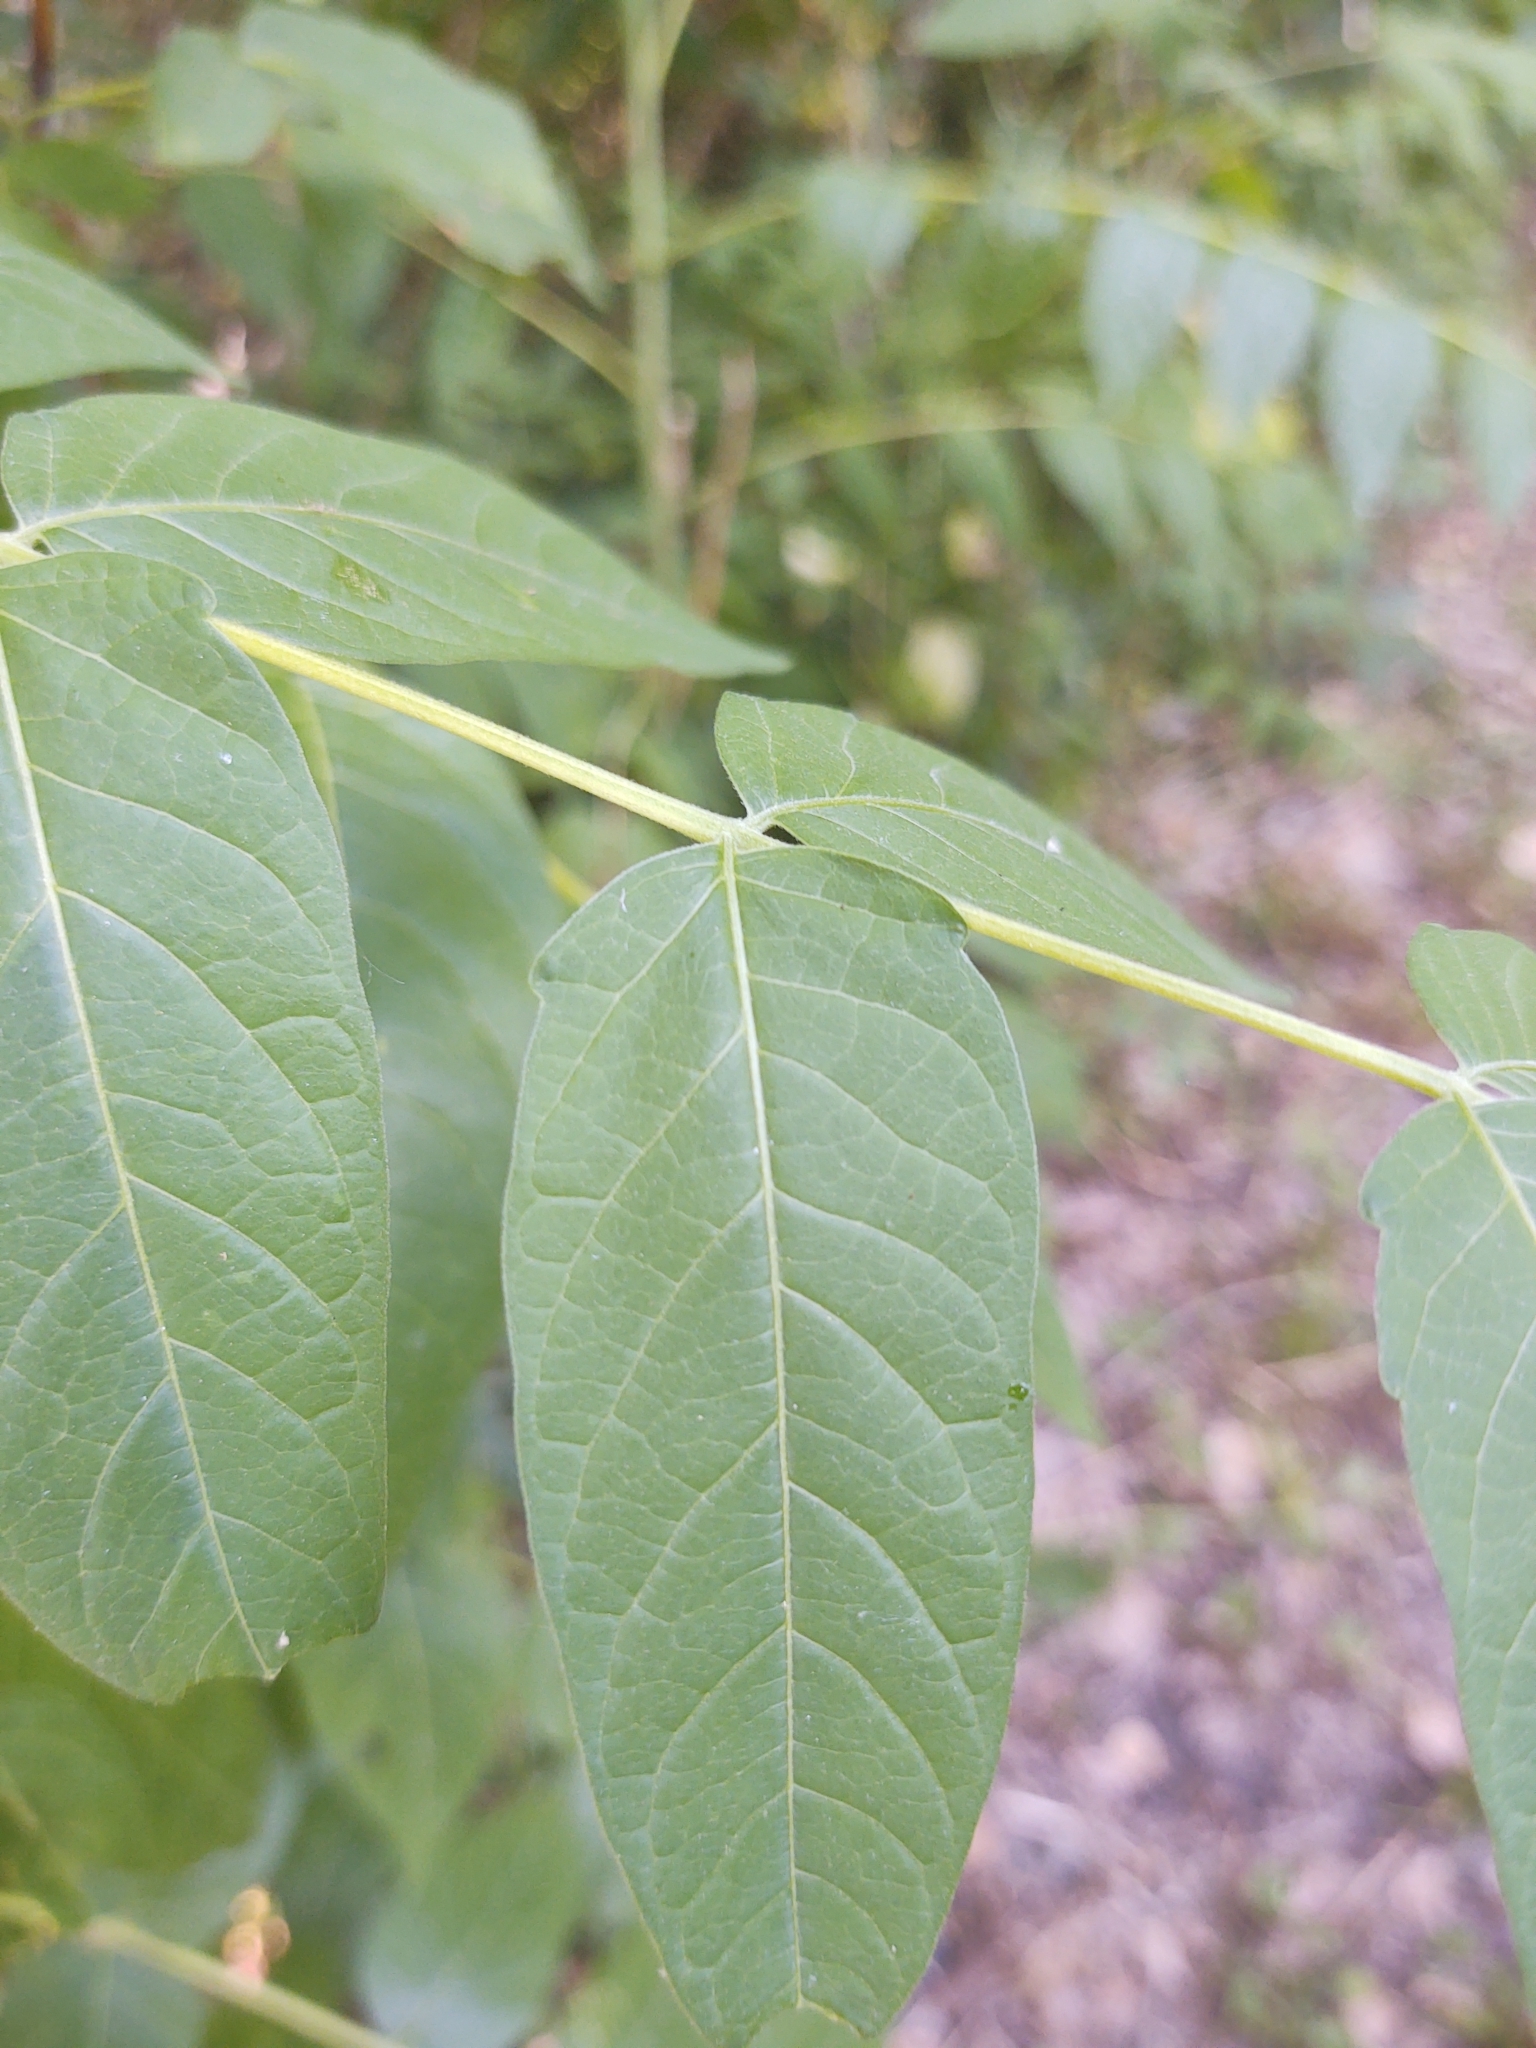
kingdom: Plantae
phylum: Tracheophyta
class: Magnoliopsida
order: Sapindales
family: Simaroubaceae
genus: Ailanthus
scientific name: Ailanthus altissima
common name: Tree-of-heaven
